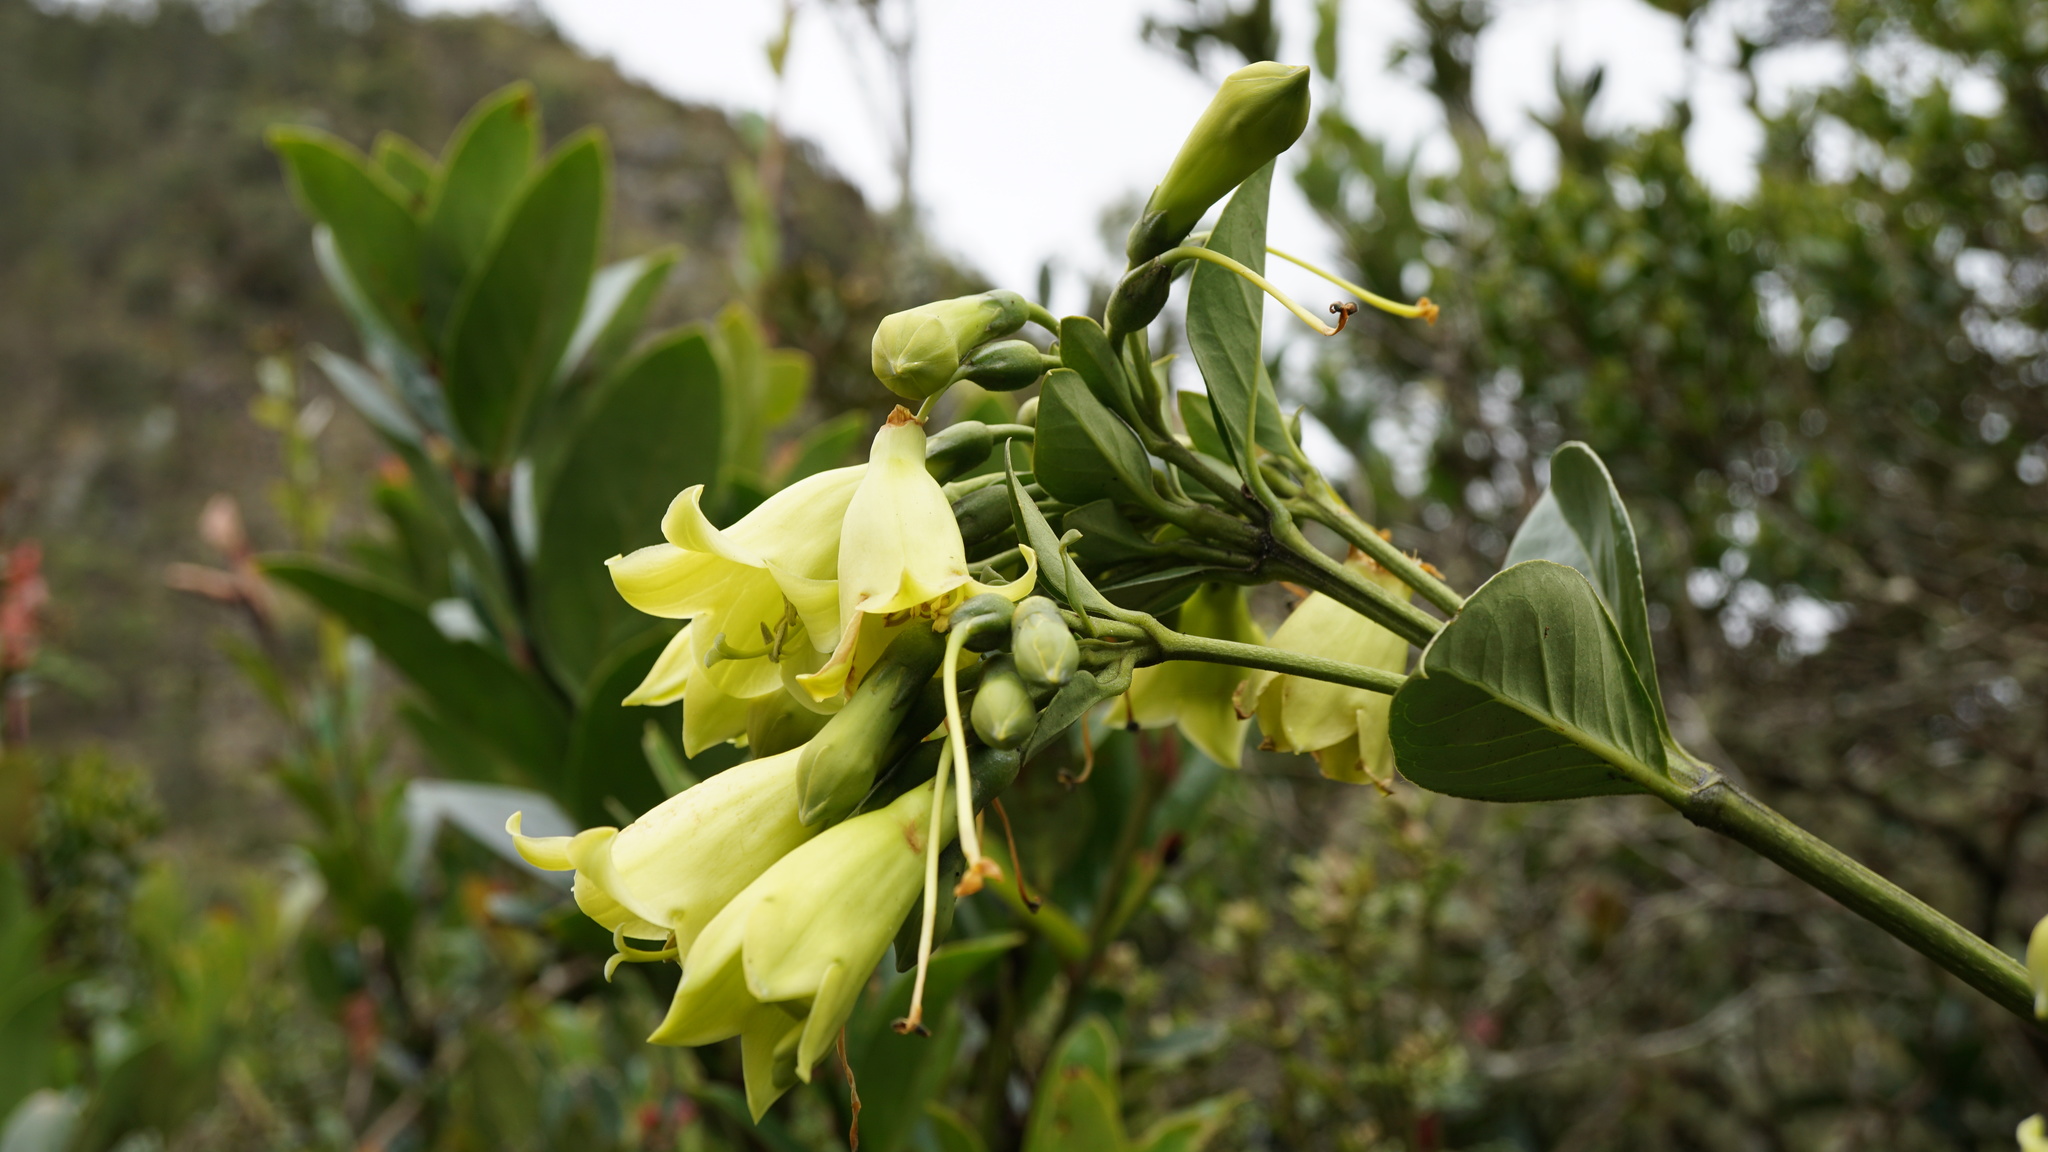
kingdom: Plantae
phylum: Tracheophyta
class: Magnoliopsida
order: Gentianales
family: Gentianaceae
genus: Macrocarpaea
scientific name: Macrocarpaea glabra
